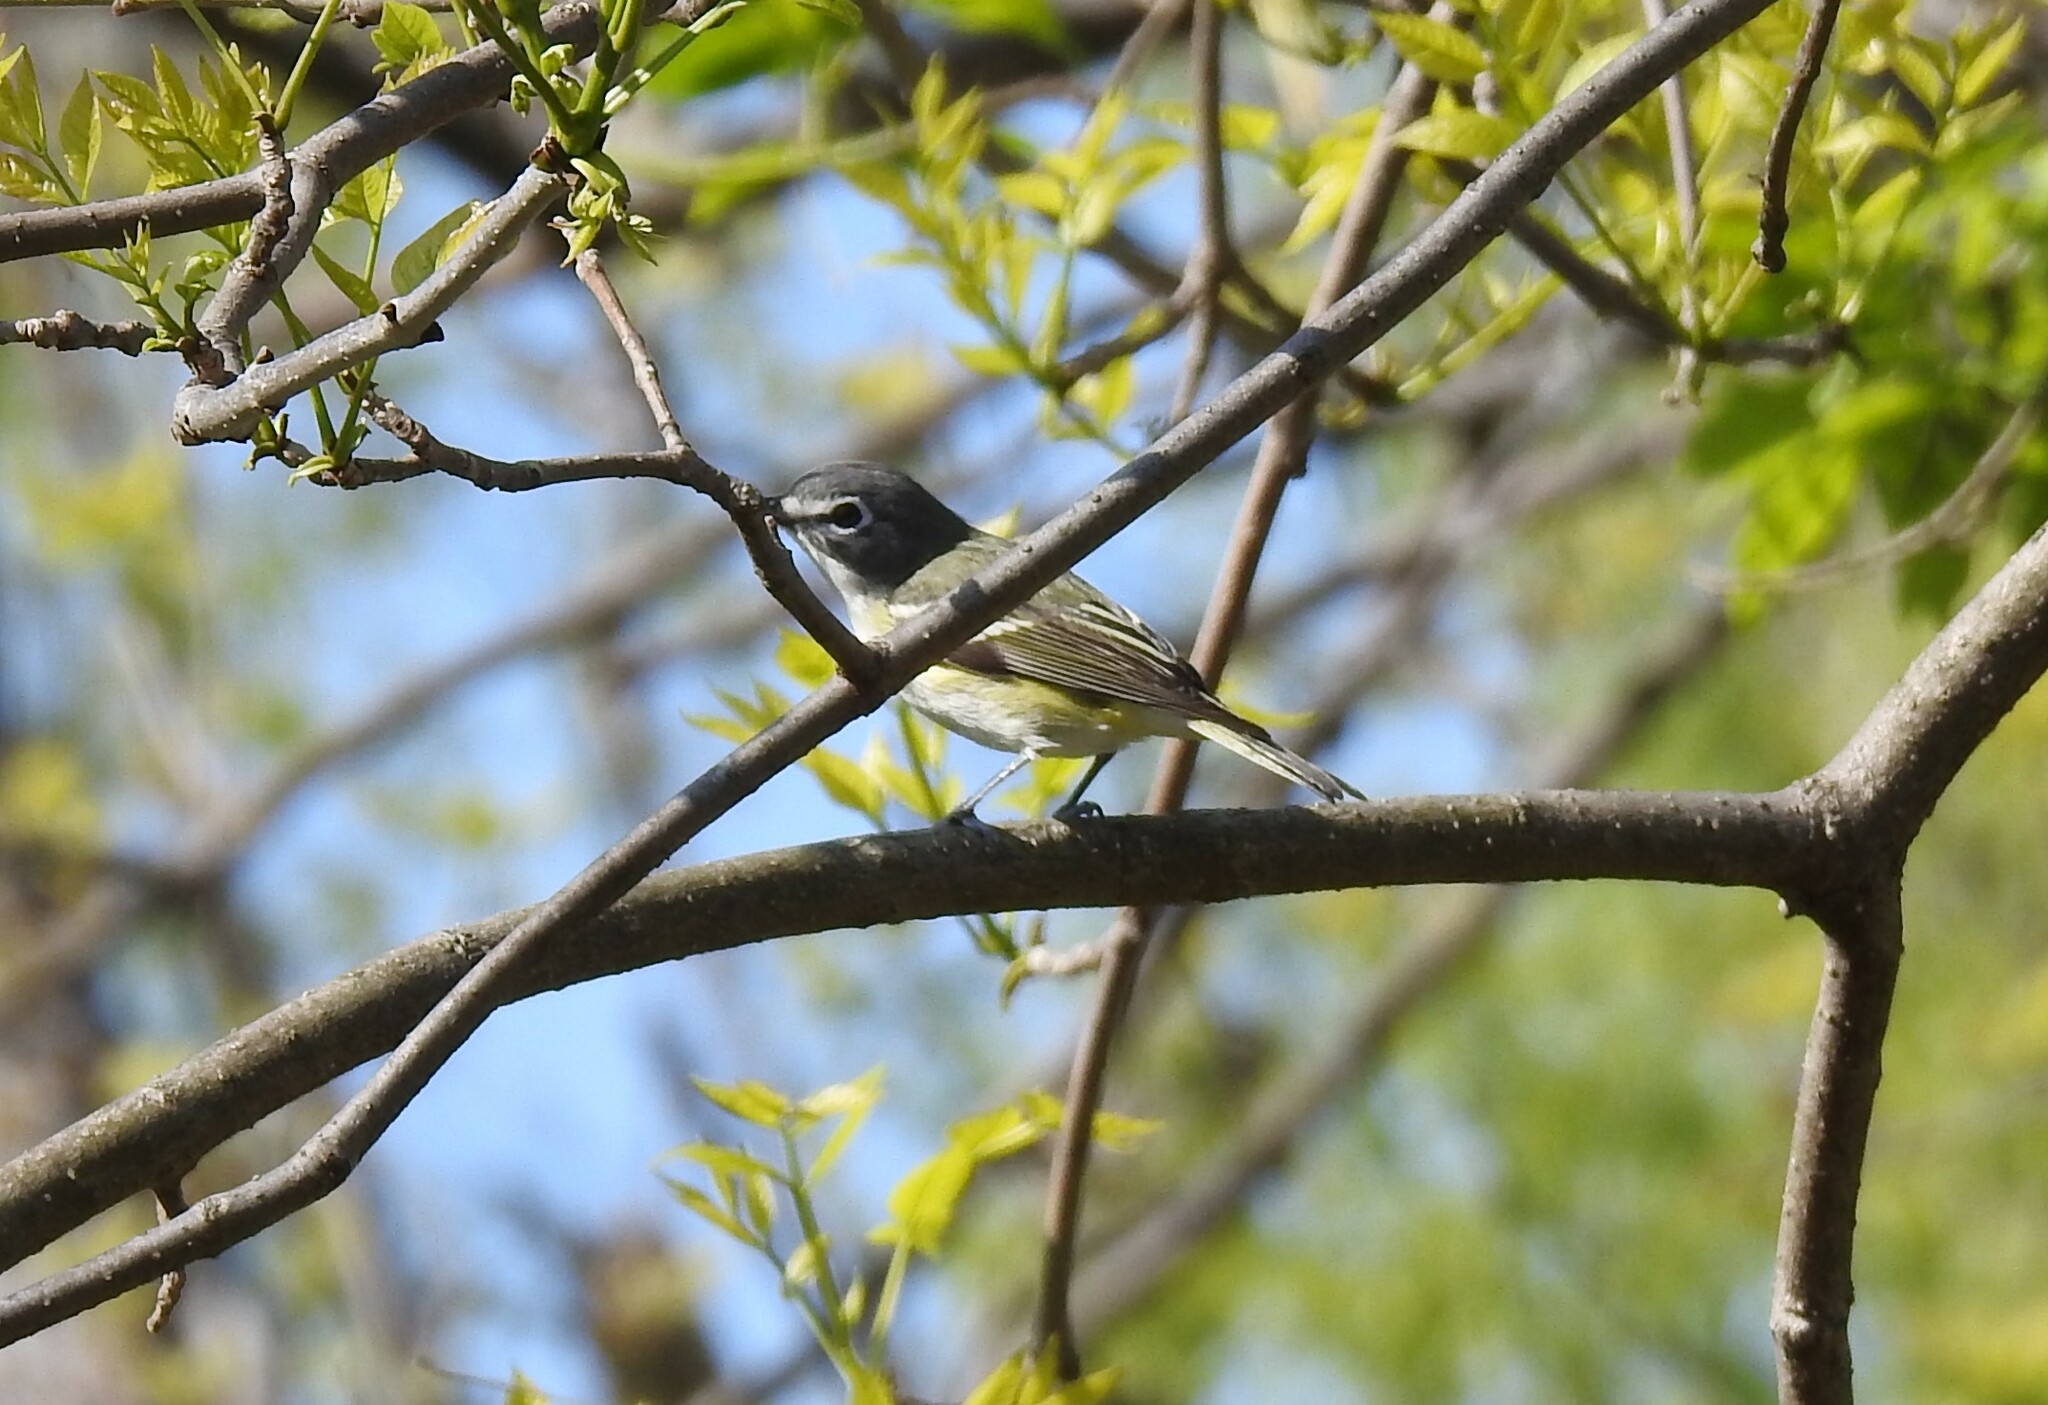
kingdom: Animalia
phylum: Chordata
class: Aves
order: Passeriformes
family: Vireonidae
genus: Vireo
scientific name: Vireo solitarius
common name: Blue-headed vireo
